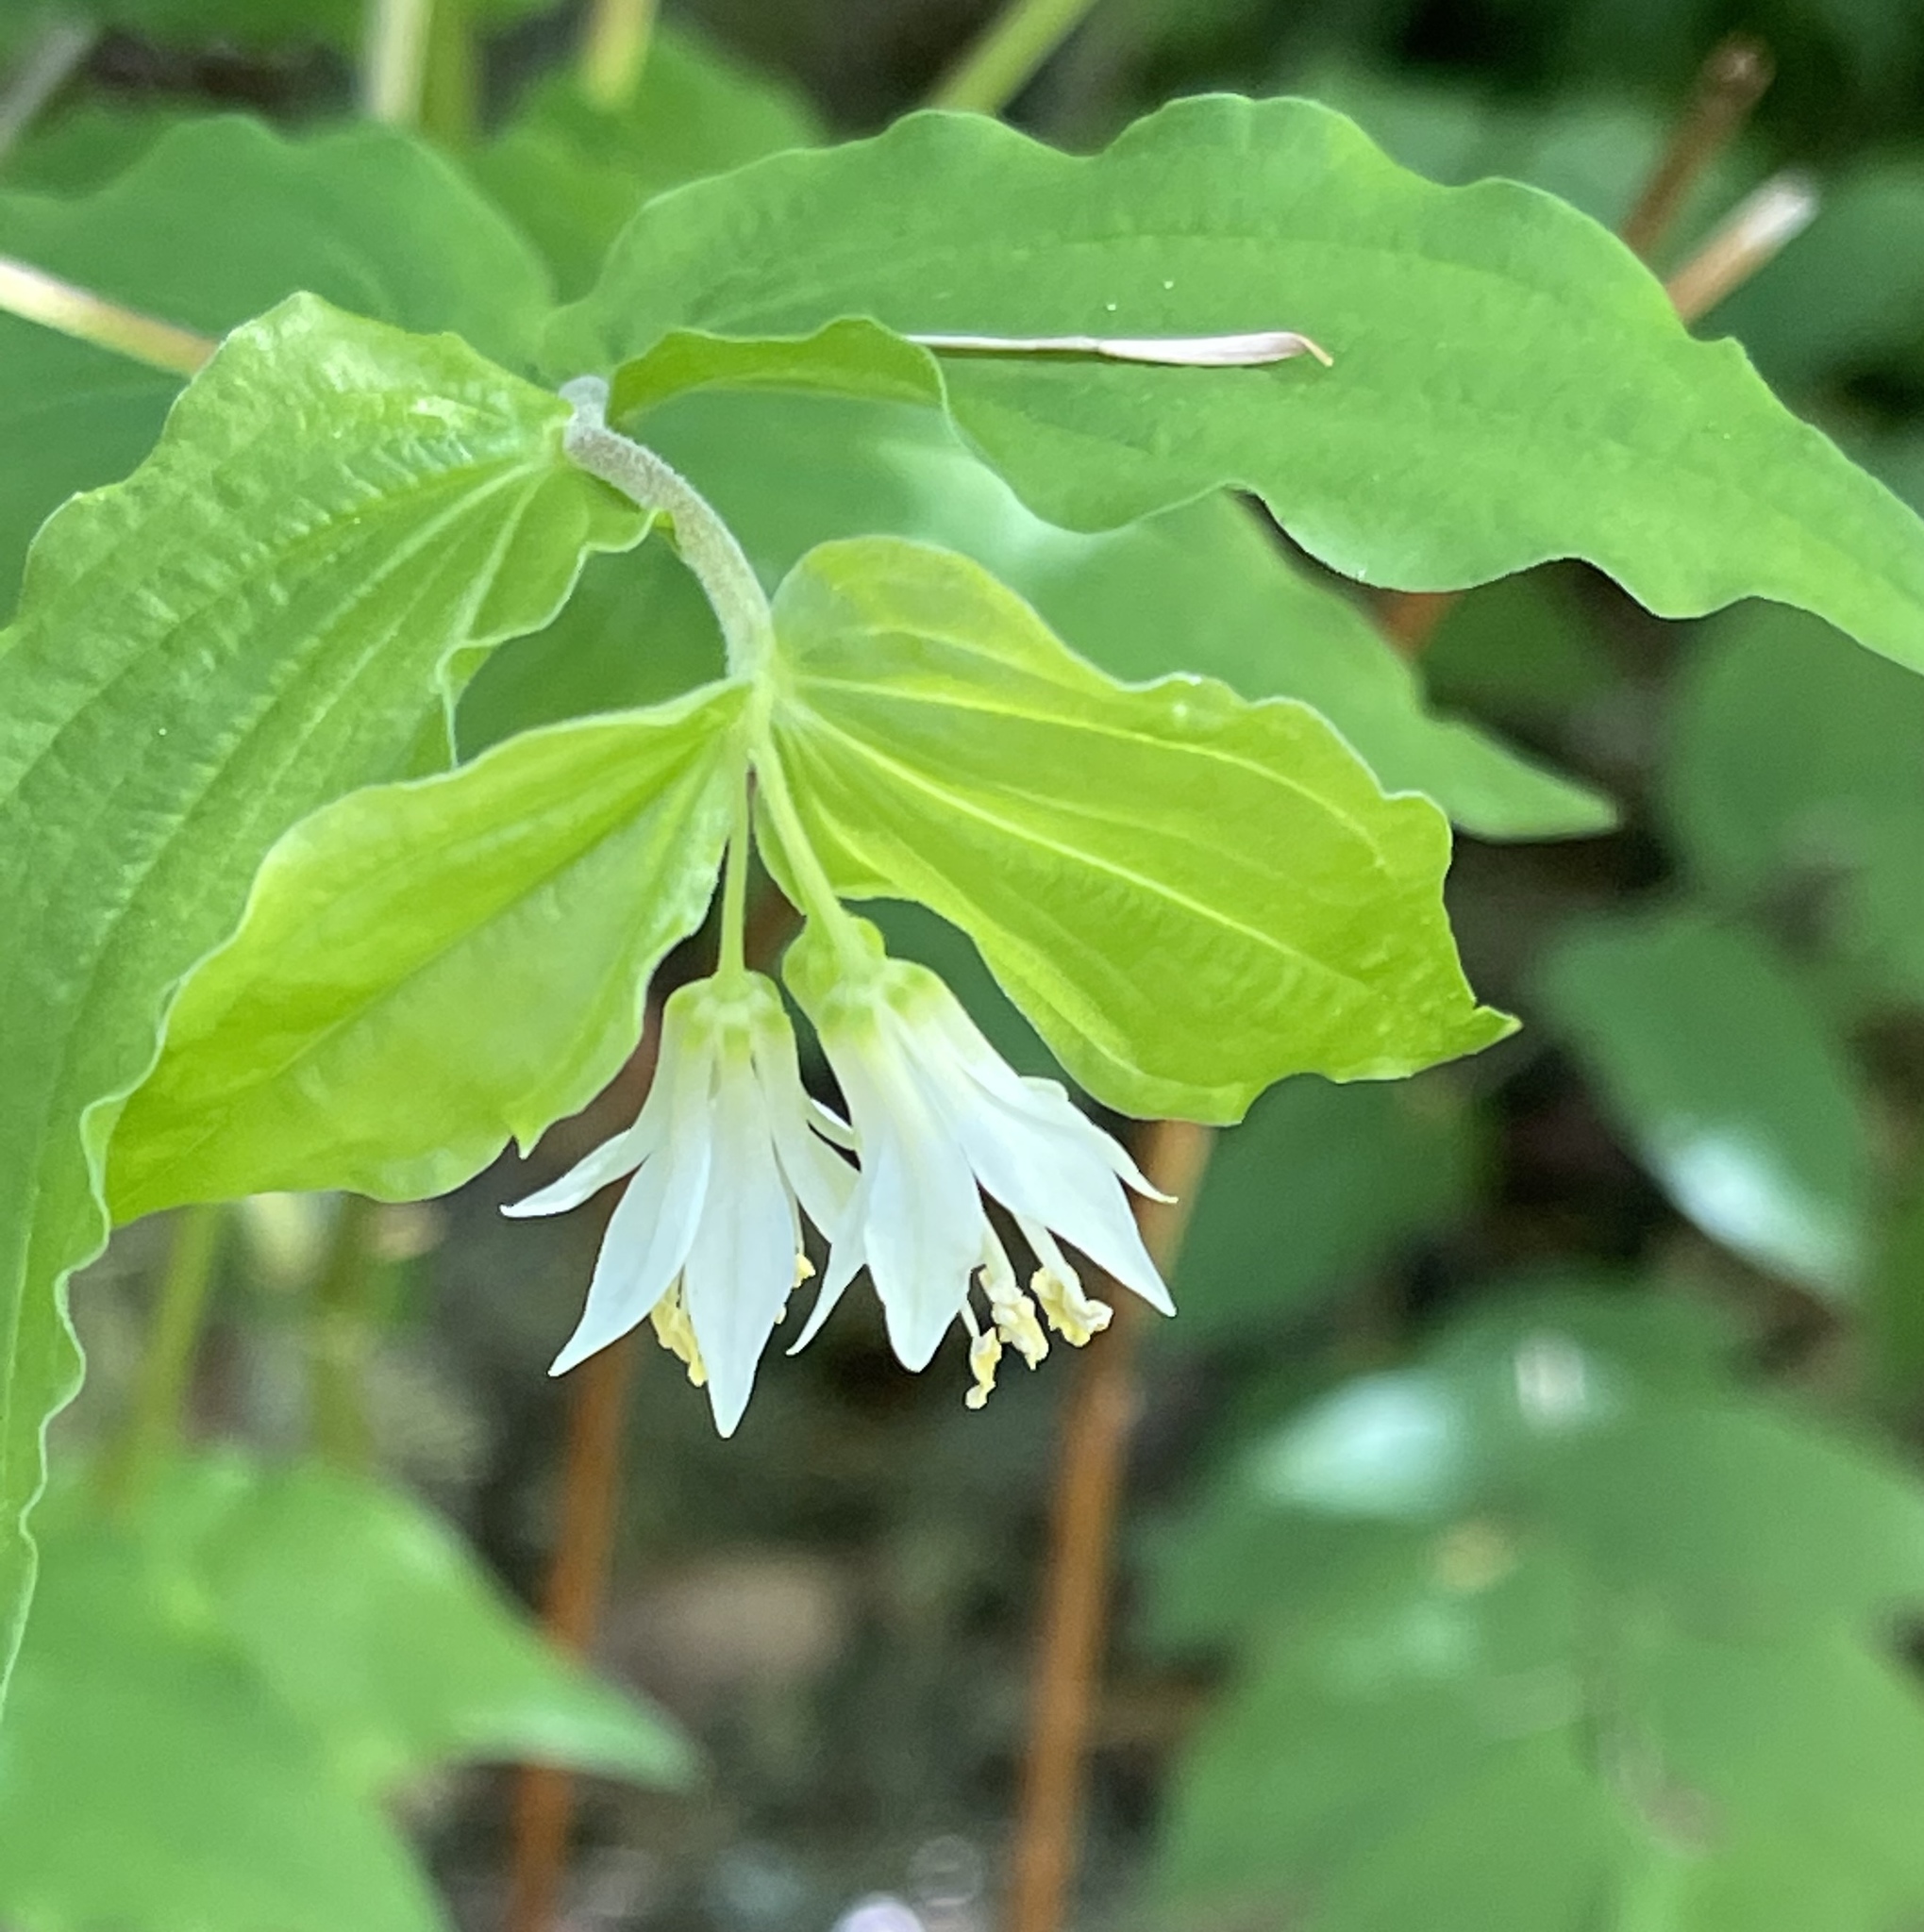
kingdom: Plantae
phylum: Tracheophyta
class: Liliopsida
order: Liliales
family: Liliaceae
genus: Prosartes
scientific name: Prosartes hookeri
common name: Fairy-bells
